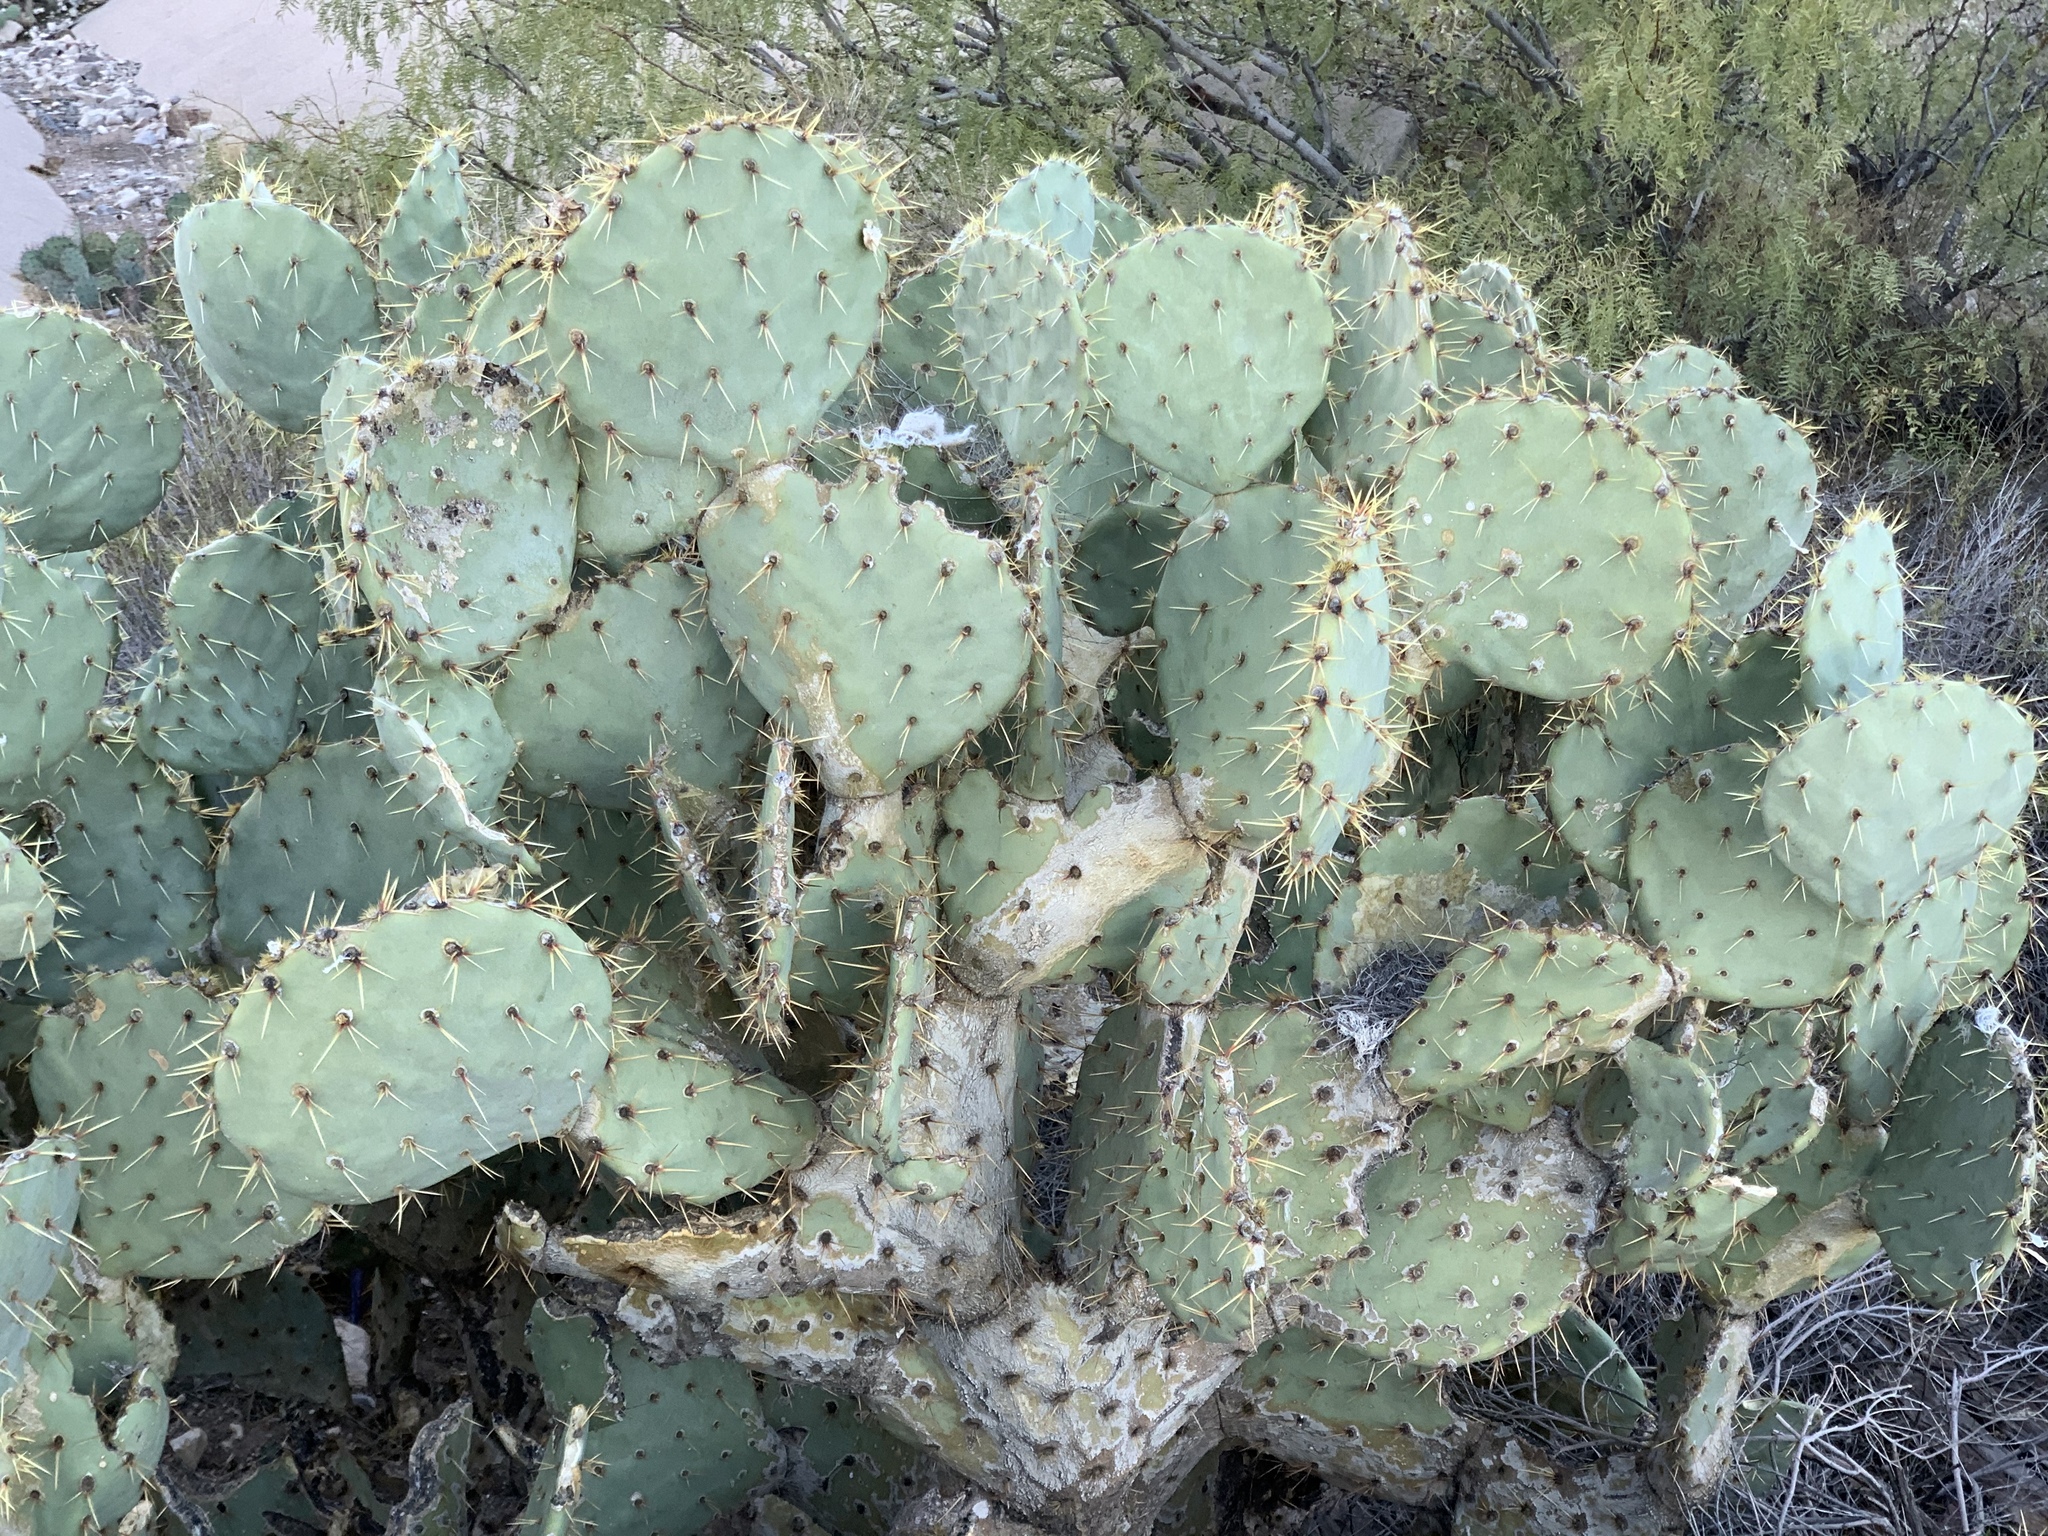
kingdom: Plantae
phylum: Tracheophyta
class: Magnoliopsida
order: Caryophyllales
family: Cactaceae
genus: Opuntia
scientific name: Opuntia engelmannii
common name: Cactus-apple
